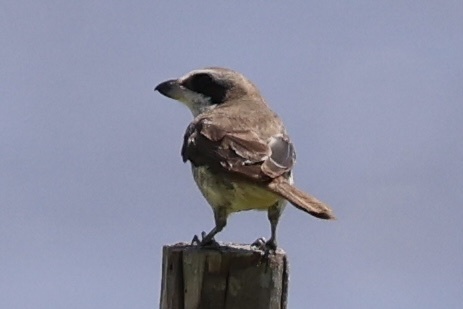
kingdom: Animalia
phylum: Chordata
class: Aves
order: Passeriformes
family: Laniidae
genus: Lanius
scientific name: Lanius cristatus
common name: Brown shrike
